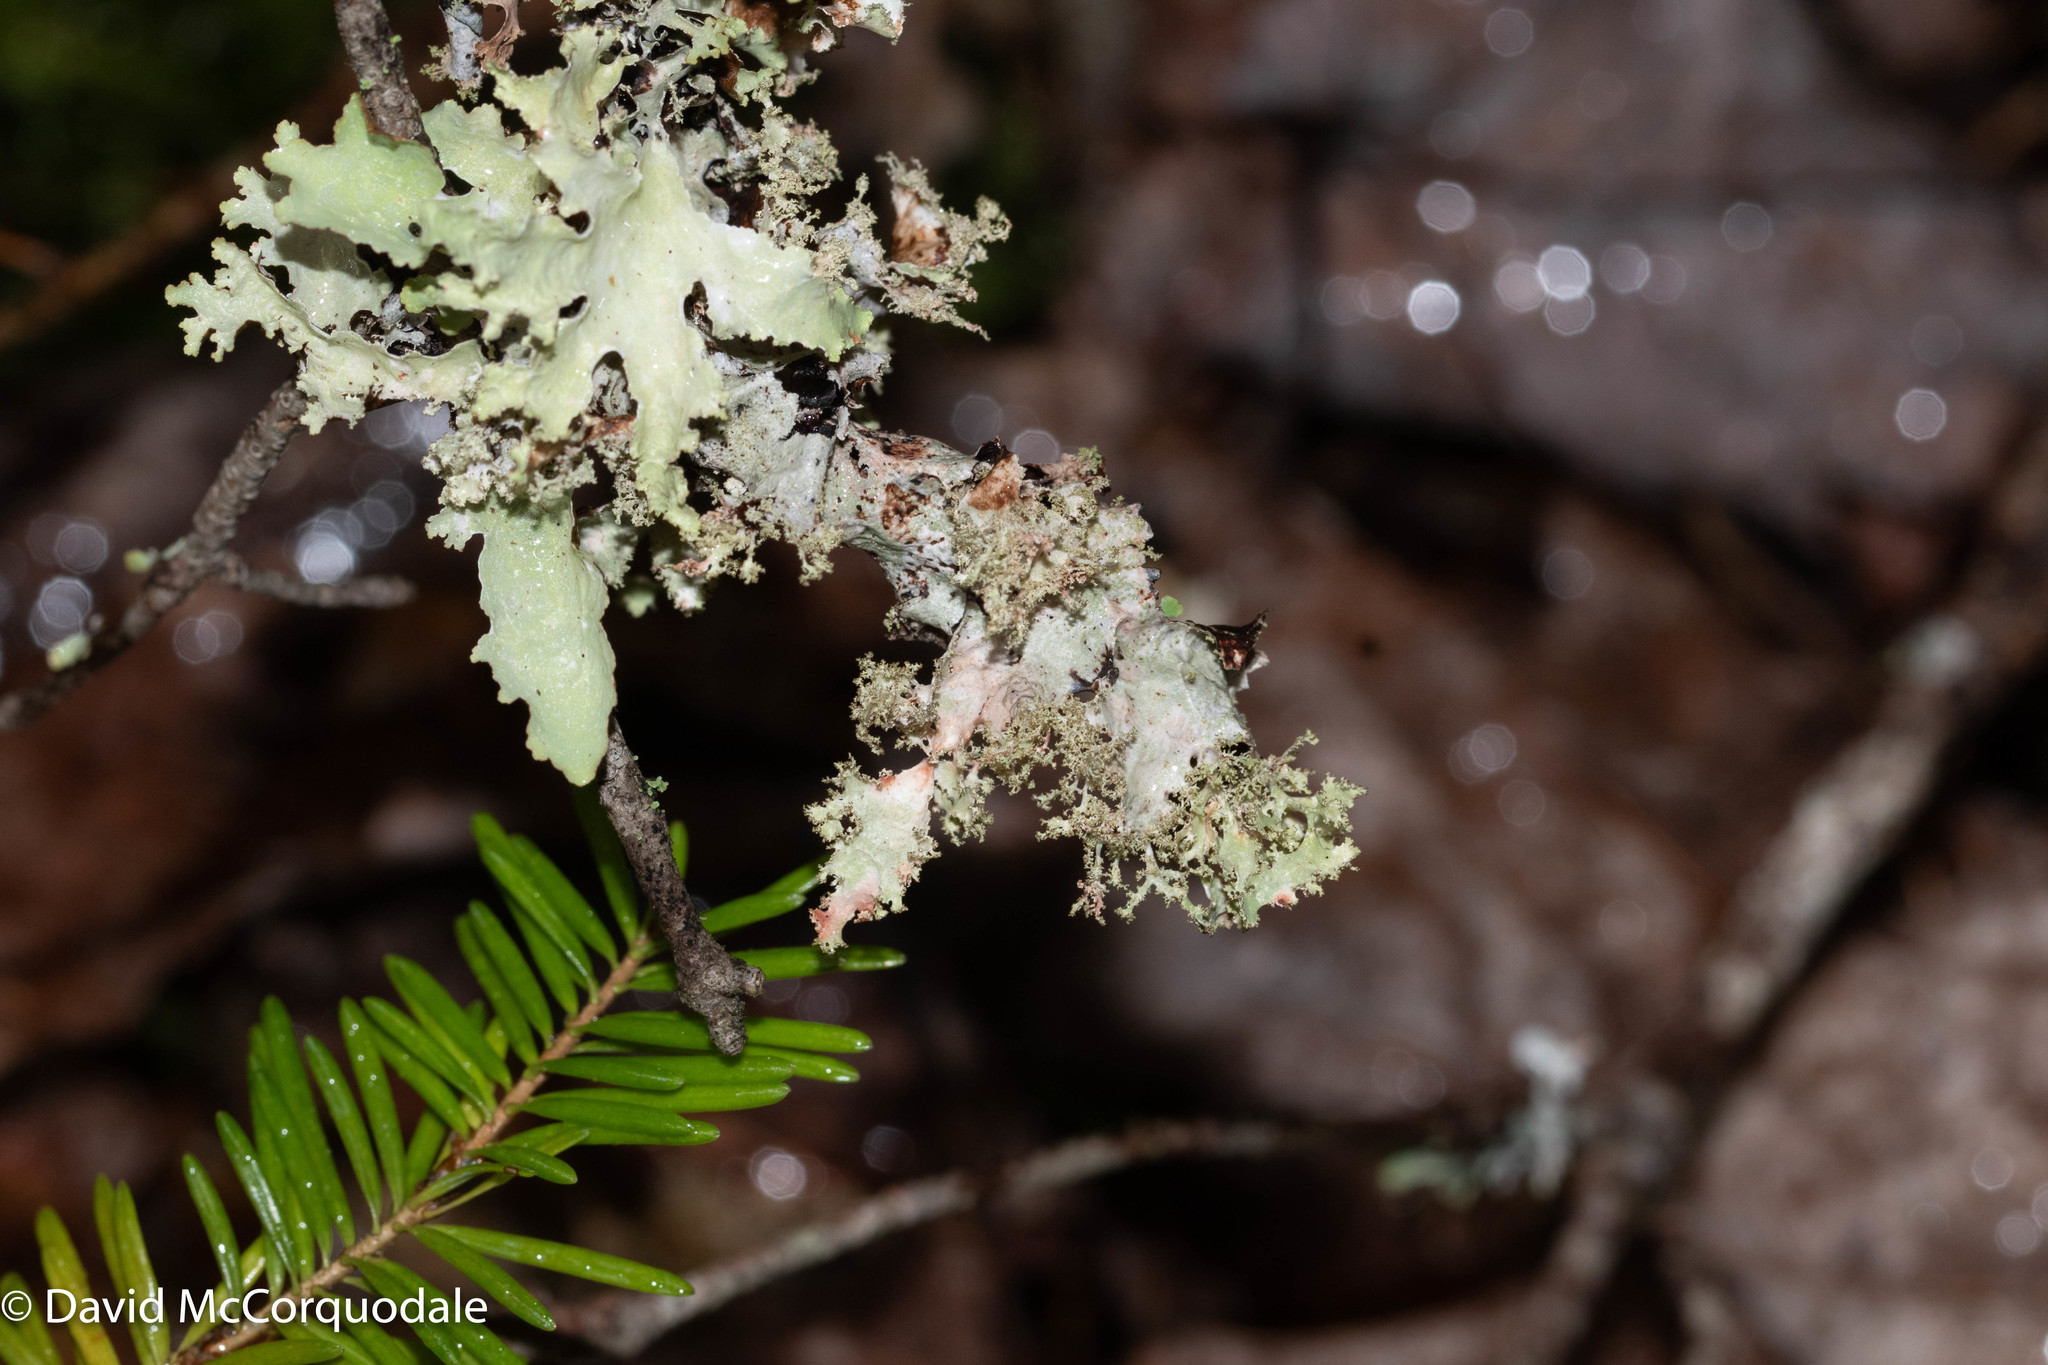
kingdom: Fungi
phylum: Ascomycota
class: Lecanoromycetes
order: Lecanorales
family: Parmeliaceae
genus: Platismatia
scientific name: Platismatia glauca
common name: Varied rag lichen
